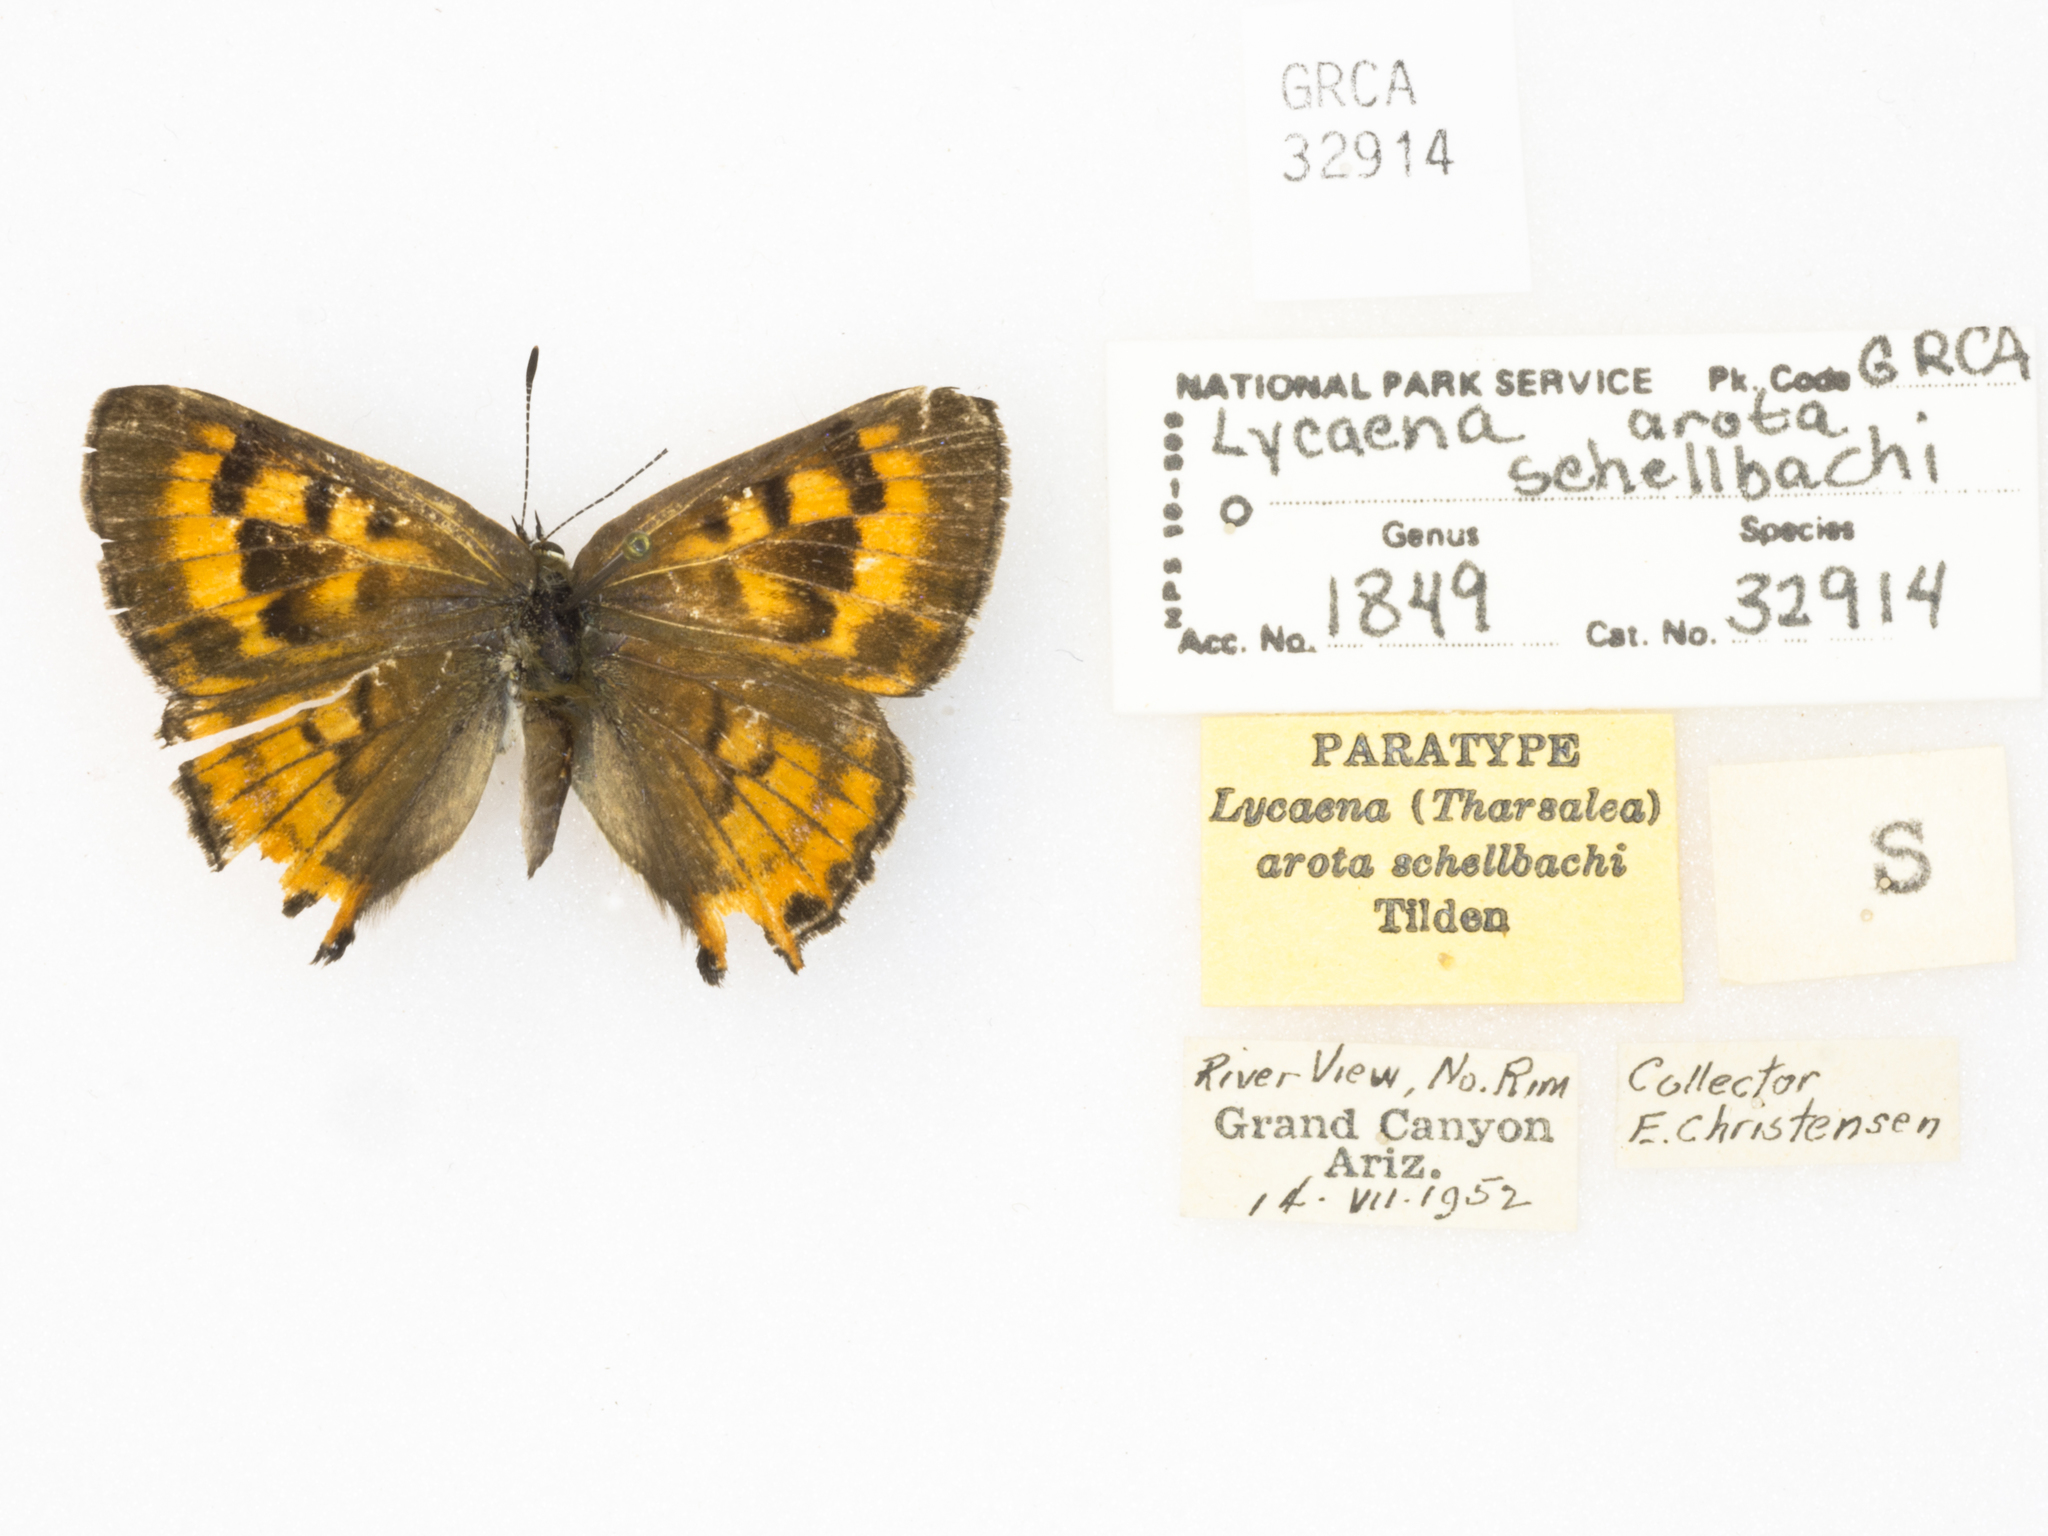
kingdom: Animalia
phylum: Arthropoda
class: Insecta
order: Lepidoptera
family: Lycaenidae
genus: Tharsalea
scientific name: Tharsalea arota
